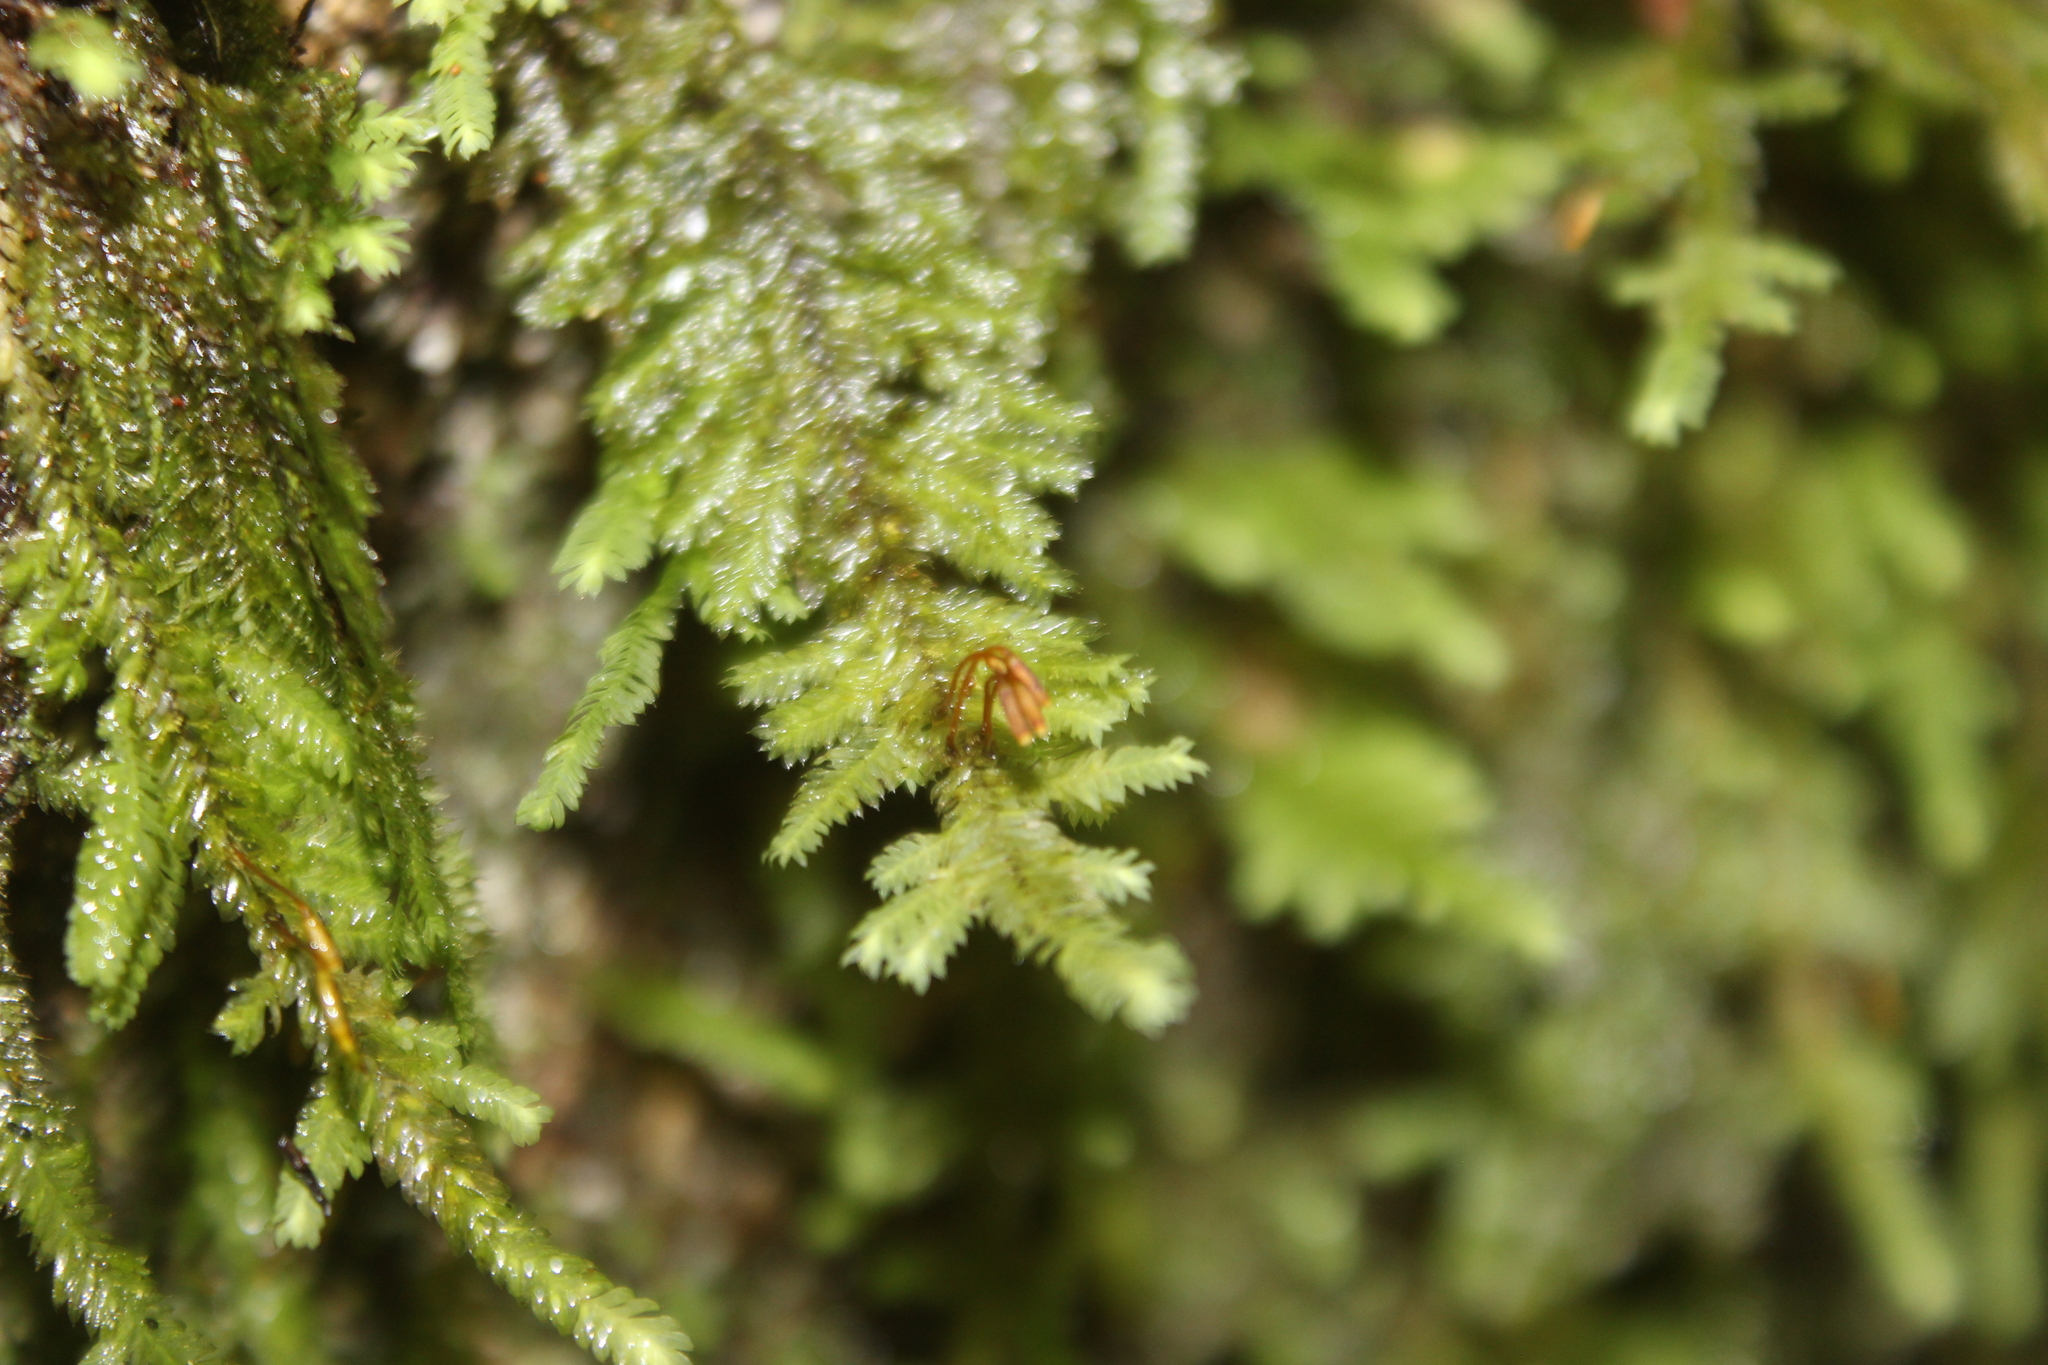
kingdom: Plantae
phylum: Bryophyta
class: Bryopsida
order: Hypopterygiales
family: Hypopterygiaceae
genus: Lopidium
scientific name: Lopidium concinnum
